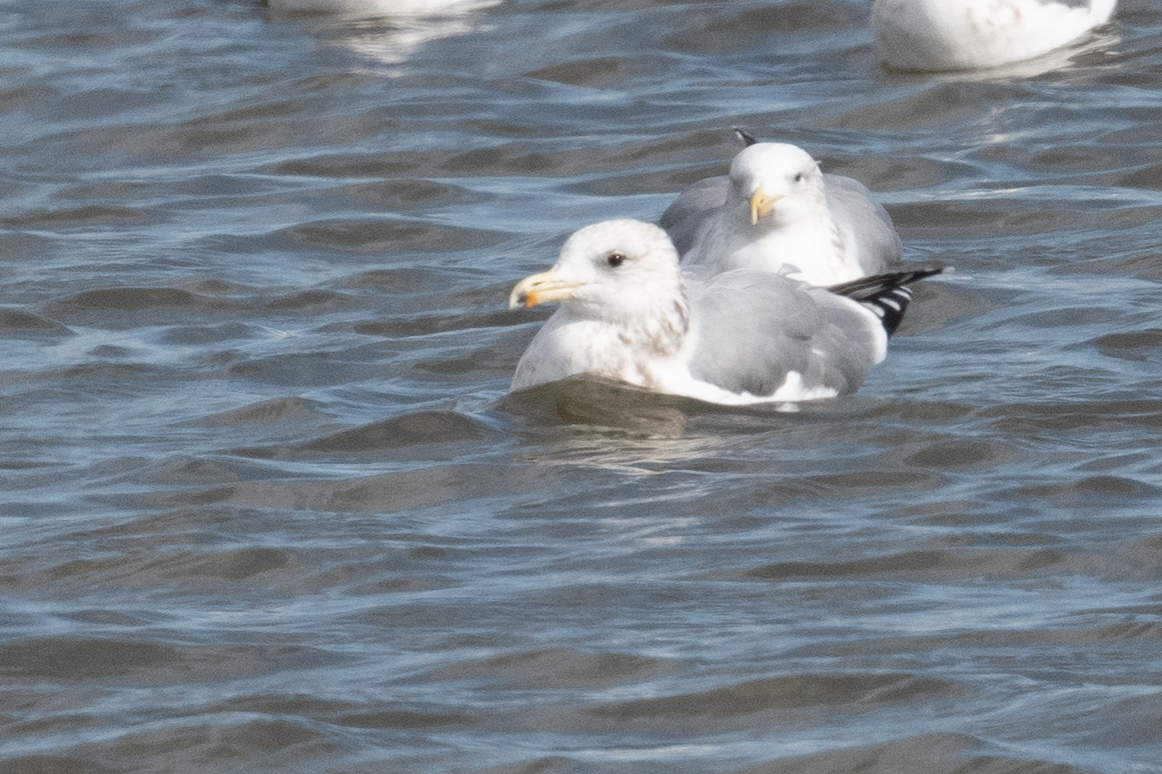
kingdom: Animalia
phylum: Chordata
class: Aves
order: Charadriiformes
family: Laridae
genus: Larus
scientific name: Larus californicus
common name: California gull
